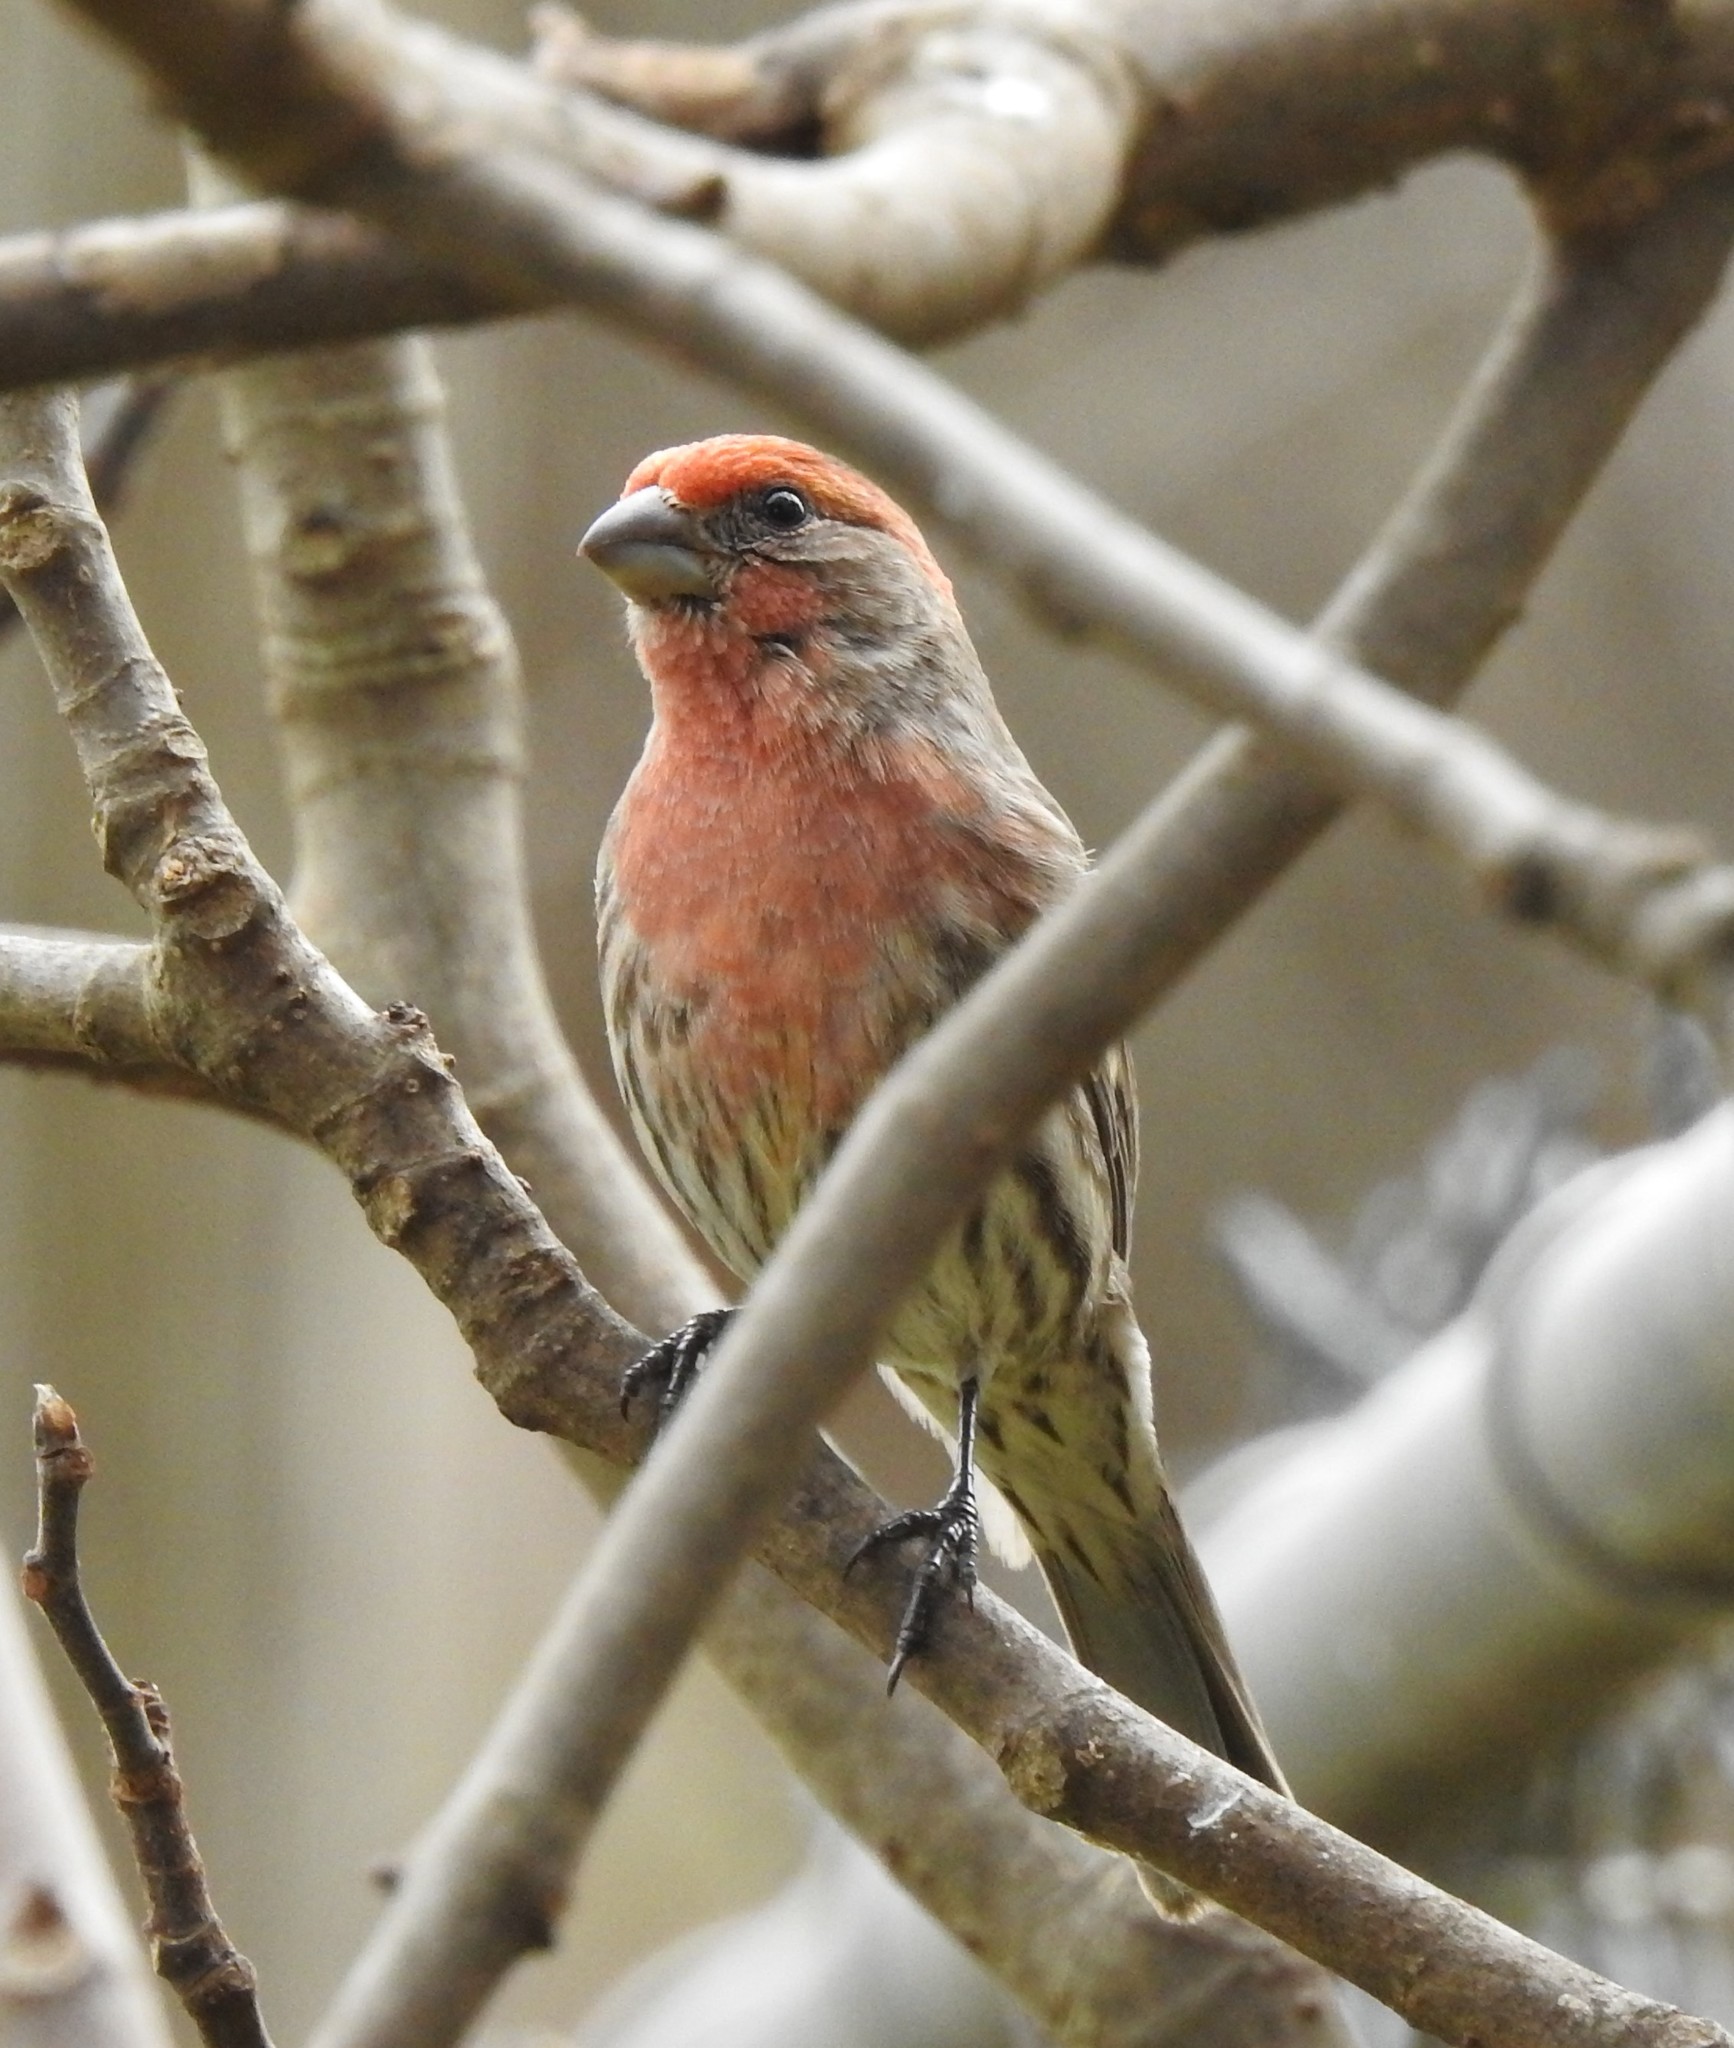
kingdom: Animalia
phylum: Chordata
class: Aves
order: Passeriformes
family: Fringillidae
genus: Haemorhous
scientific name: Haemorhous mexicanus
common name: House finch
